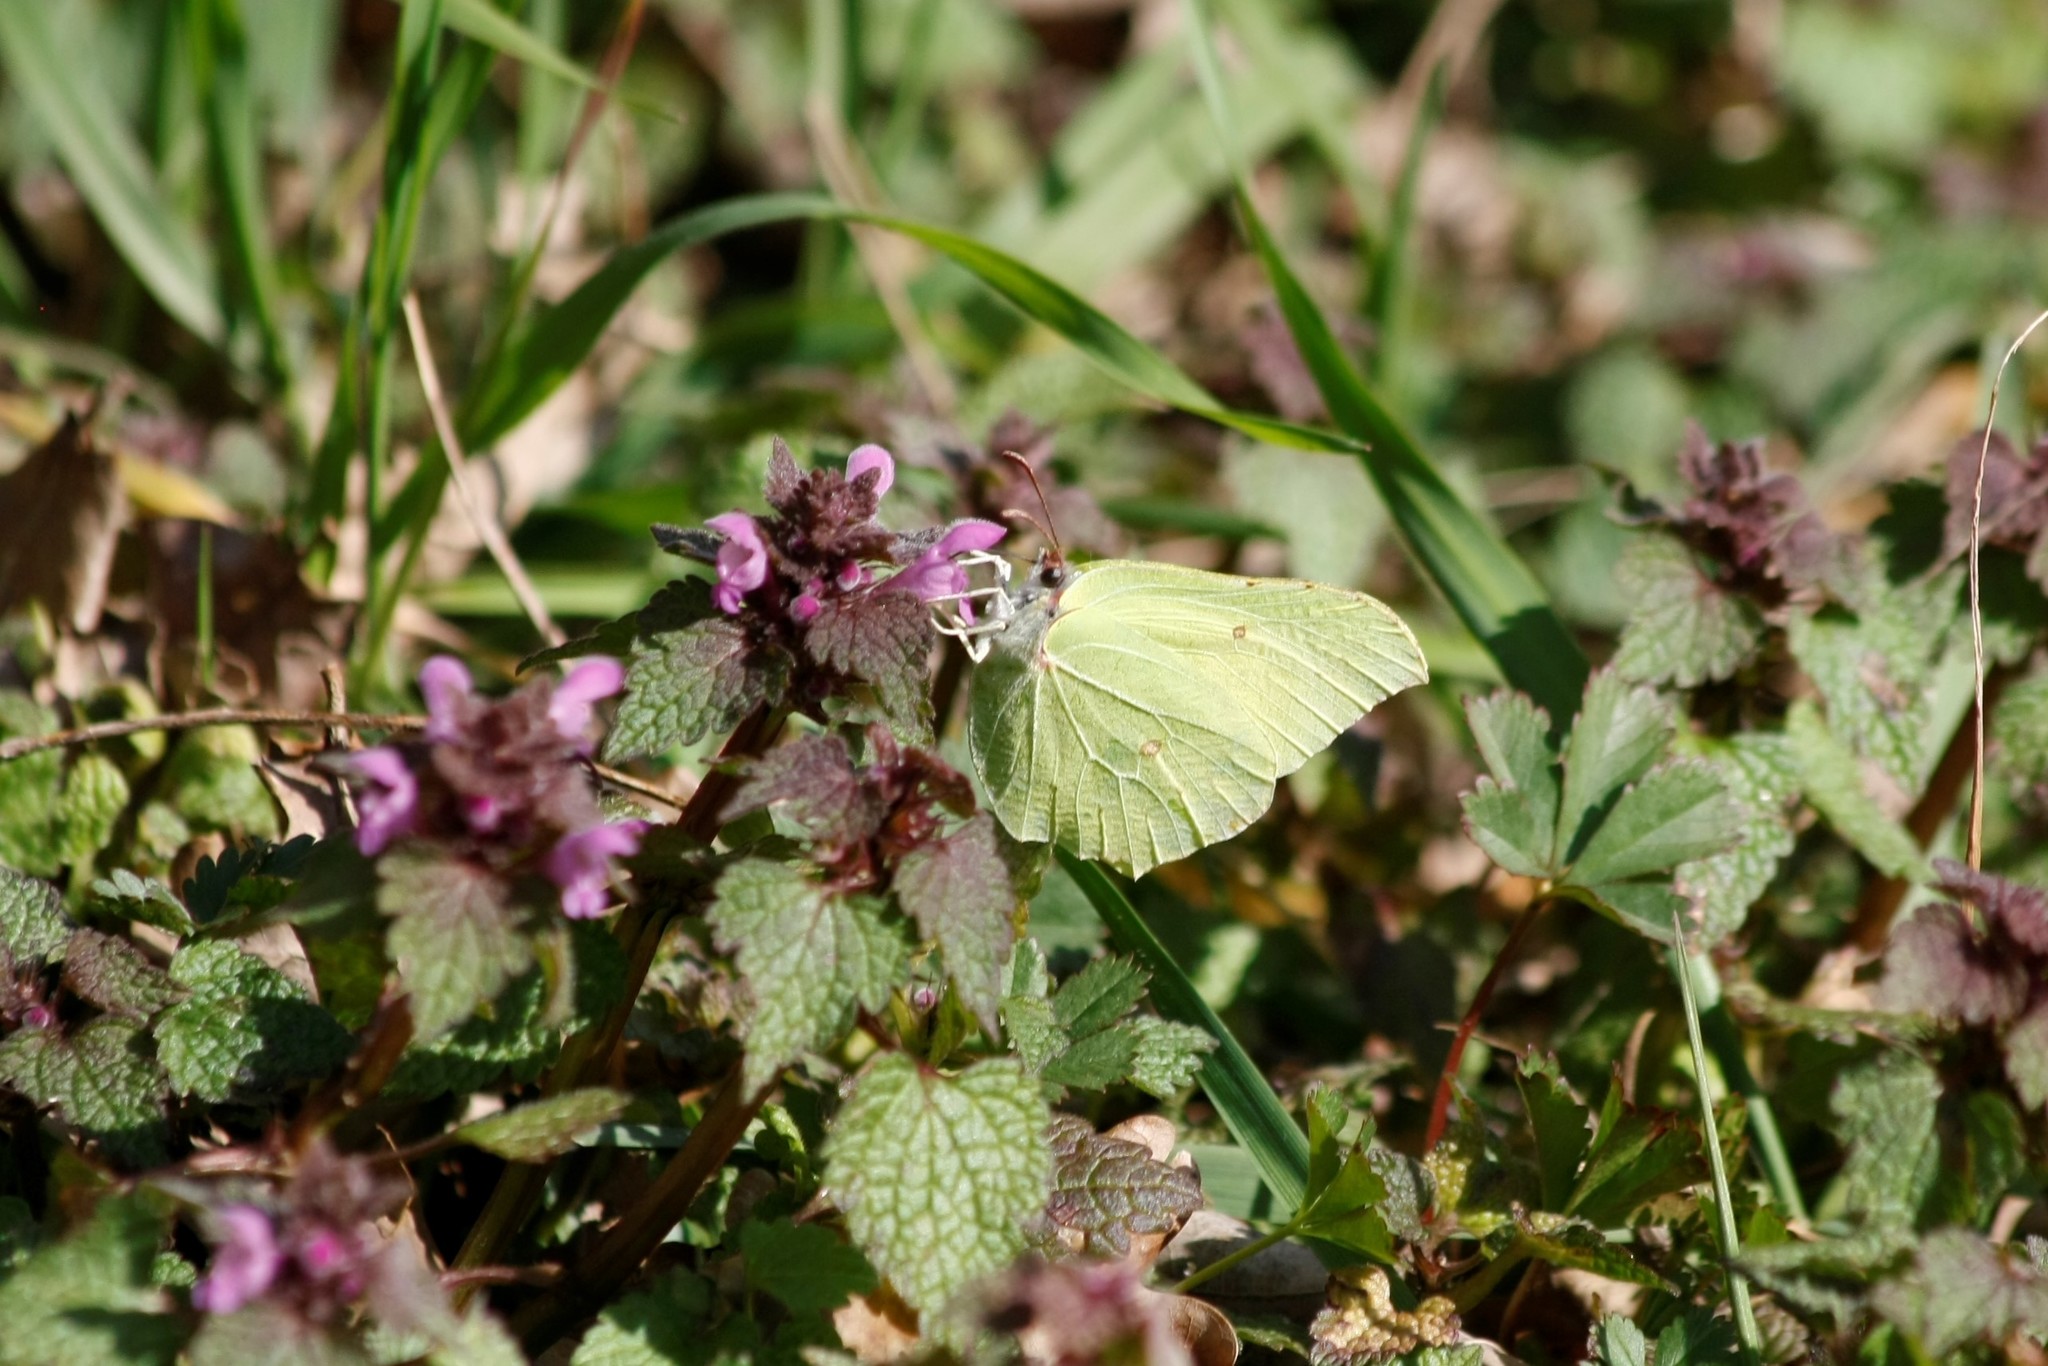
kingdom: Animalia
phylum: Arthropoda
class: Insecta
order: Lepidoptera
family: Pieridae
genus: Gonepteryx
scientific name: Gonepteryx rhamni
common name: Brimstone
